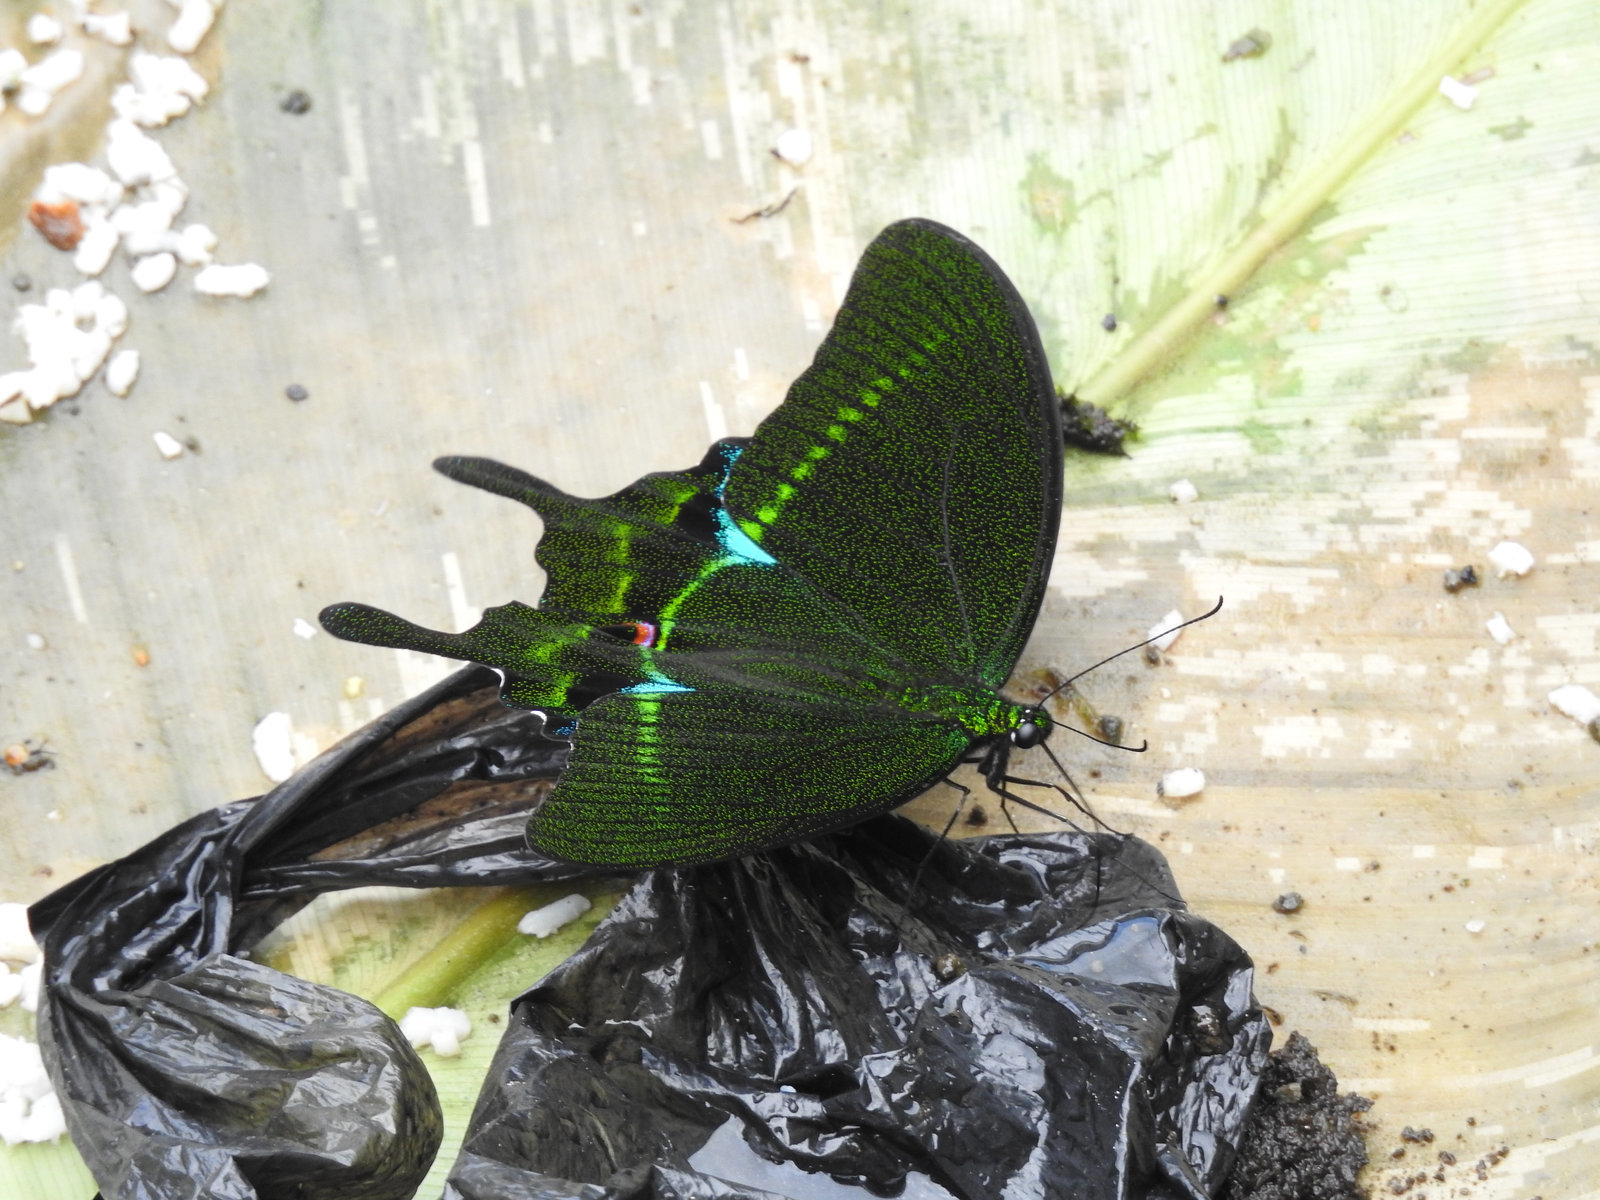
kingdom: Animalia
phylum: Arthropoda
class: Insecta
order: Lepidoptera
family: Papilionidae
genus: Papilio
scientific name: Papilio paris
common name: Paris peacock
